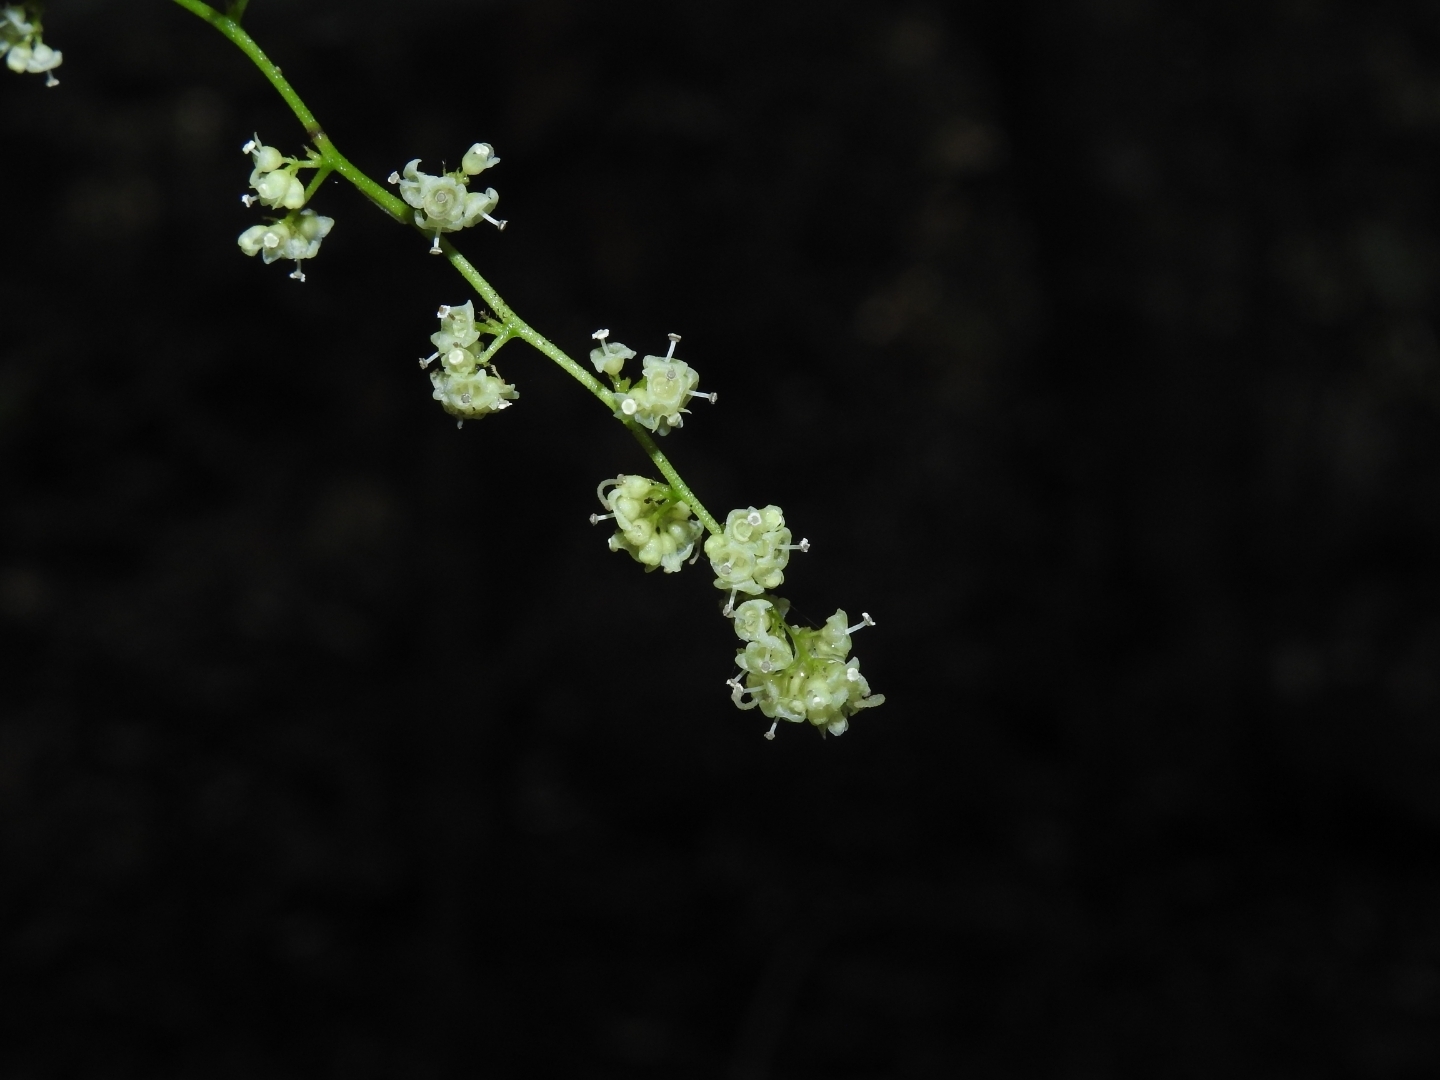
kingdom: Plantae
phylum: Tracheophyta
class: Magnoliopsida
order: Ranunculales
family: Menispermaceae
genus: Cyclea
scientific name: Cyclea peltata
